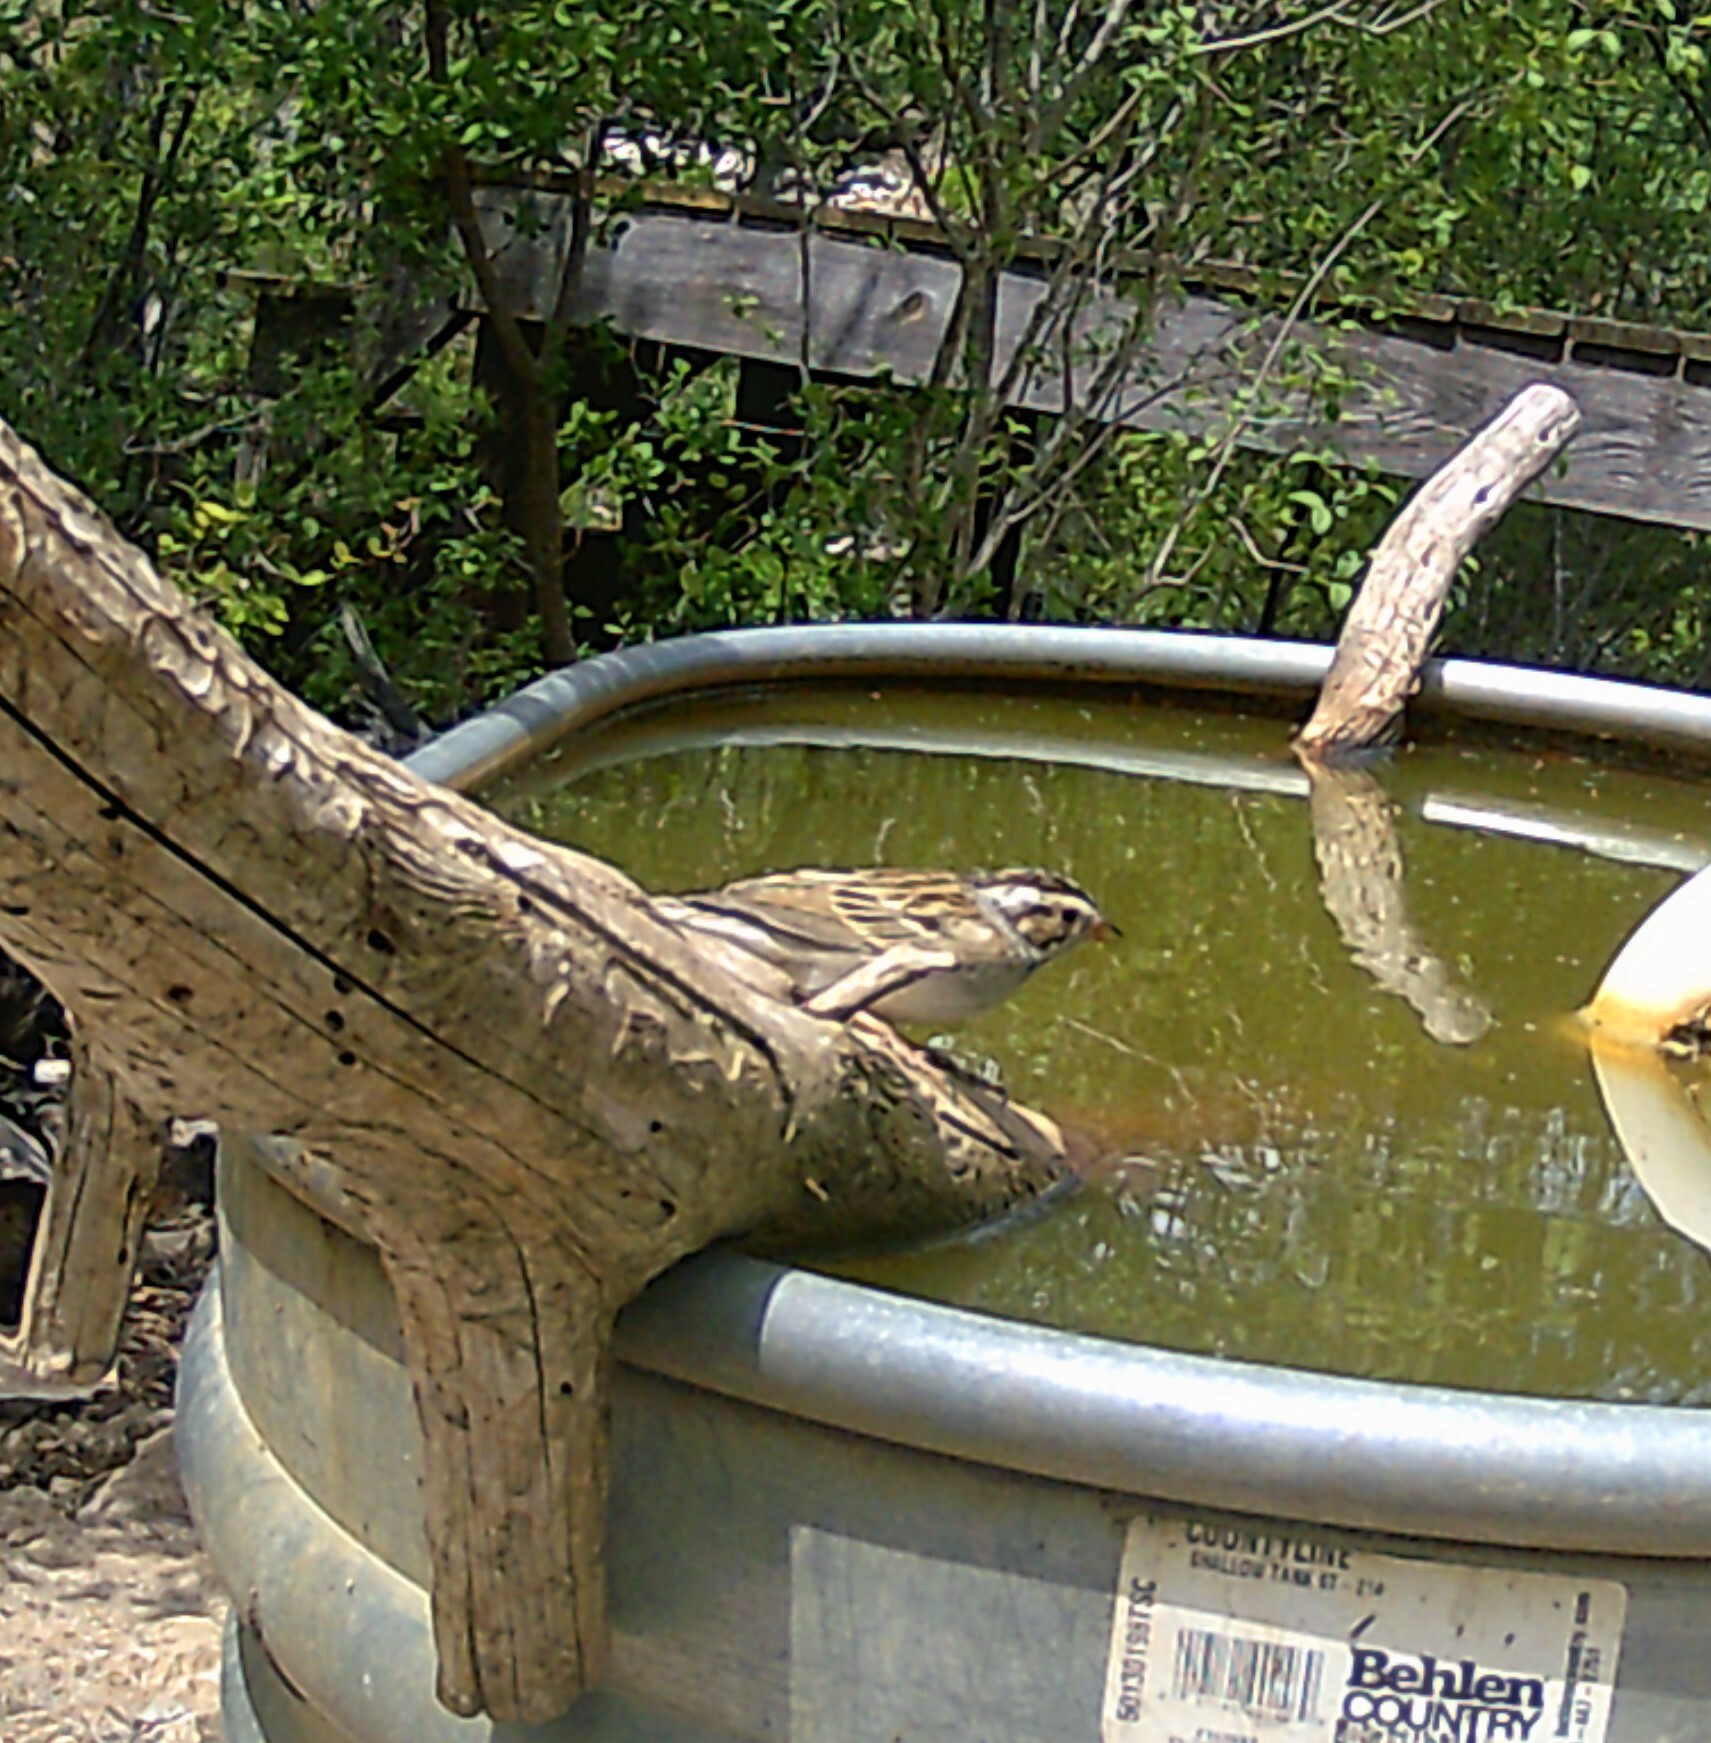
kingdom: Animalia
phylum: Chordata
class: Aves
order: Passeriformes
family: Passerellidae
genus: Spizella
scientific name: Spizella pallida
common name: Clay-colored sparrow
